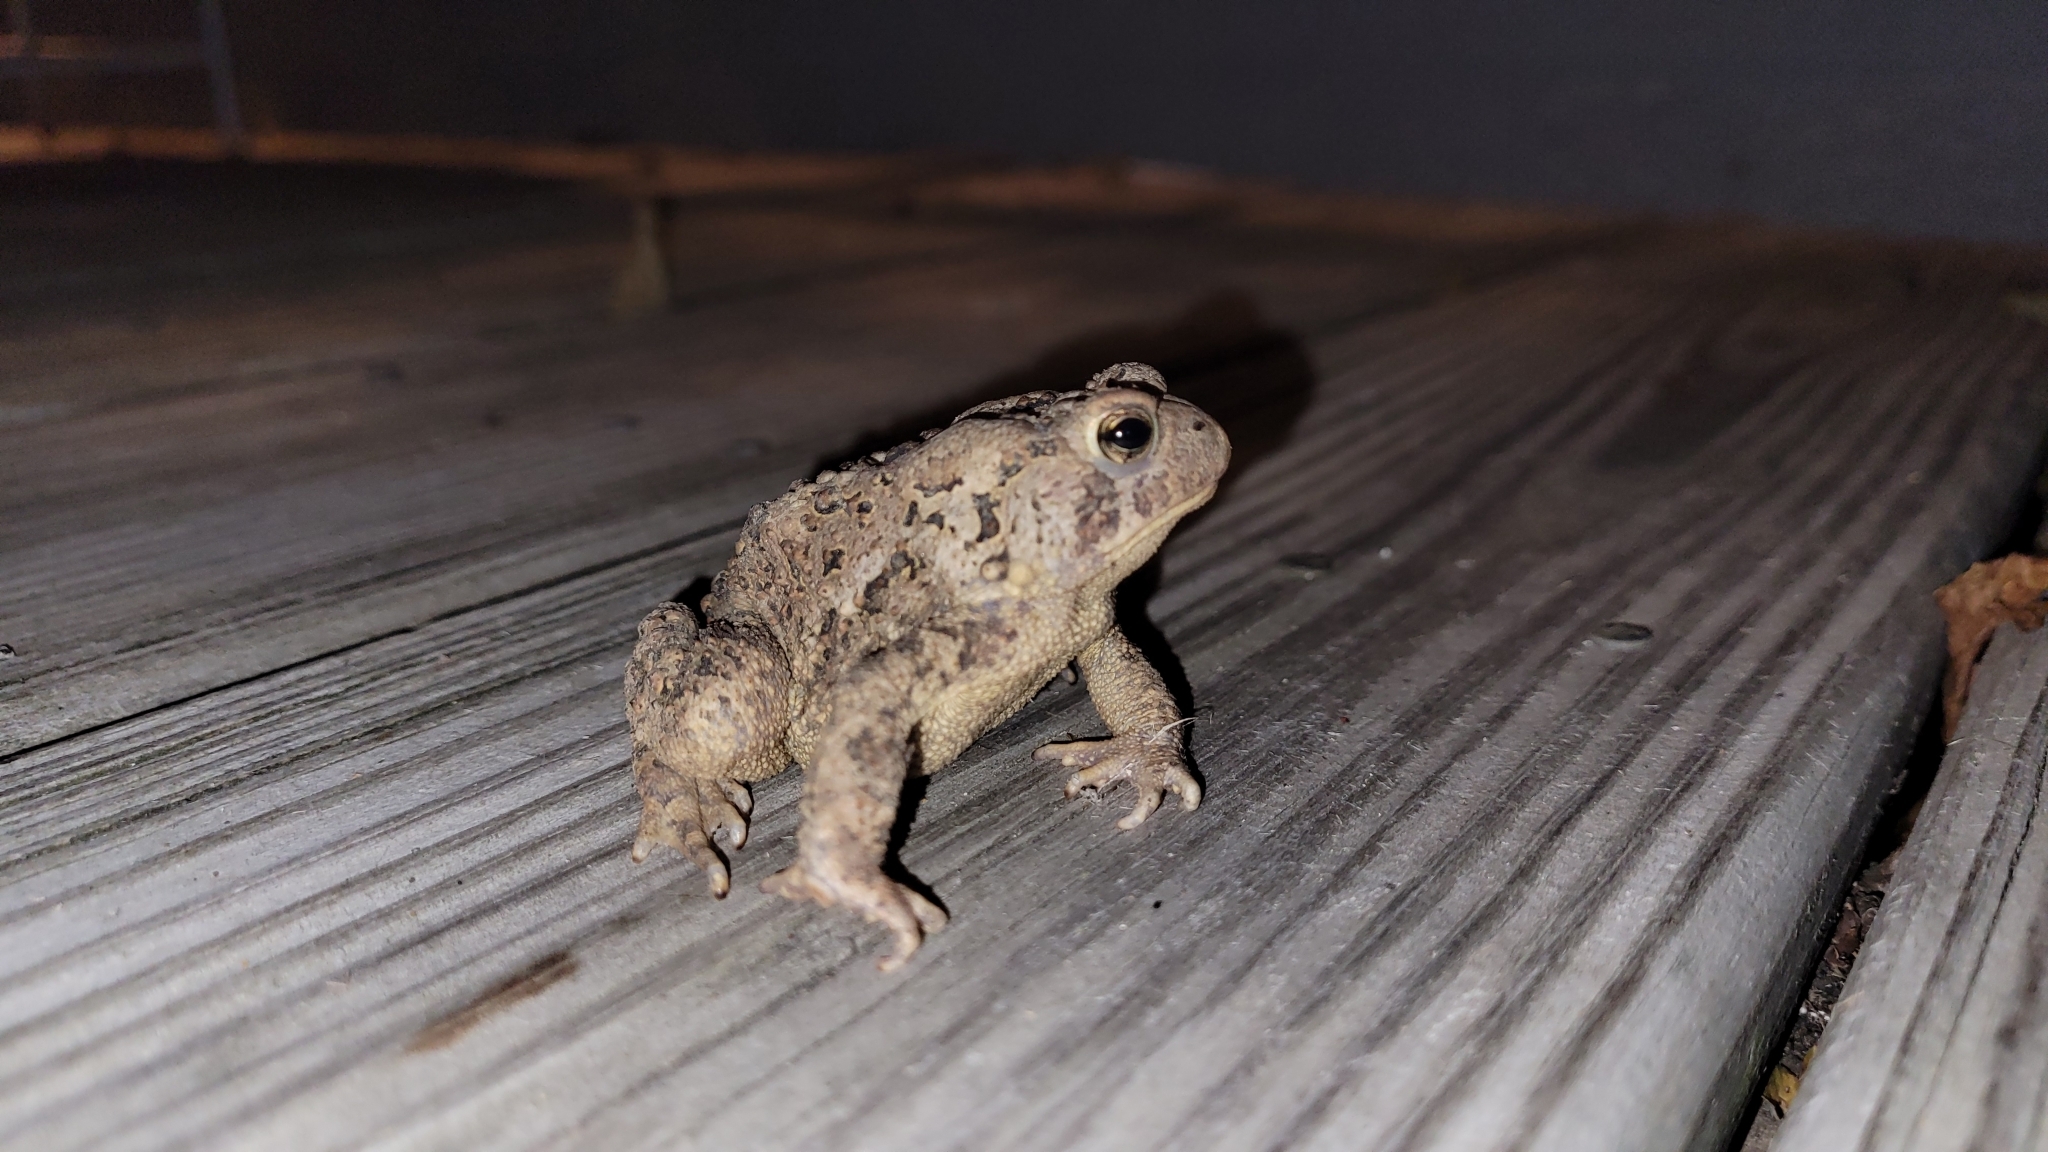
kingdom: Animalia
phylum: Chordata
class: Amphibia
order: Anura
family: Bufonidae
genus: Anaxyrus
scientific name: Anaxyrus americanus
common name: American toad
